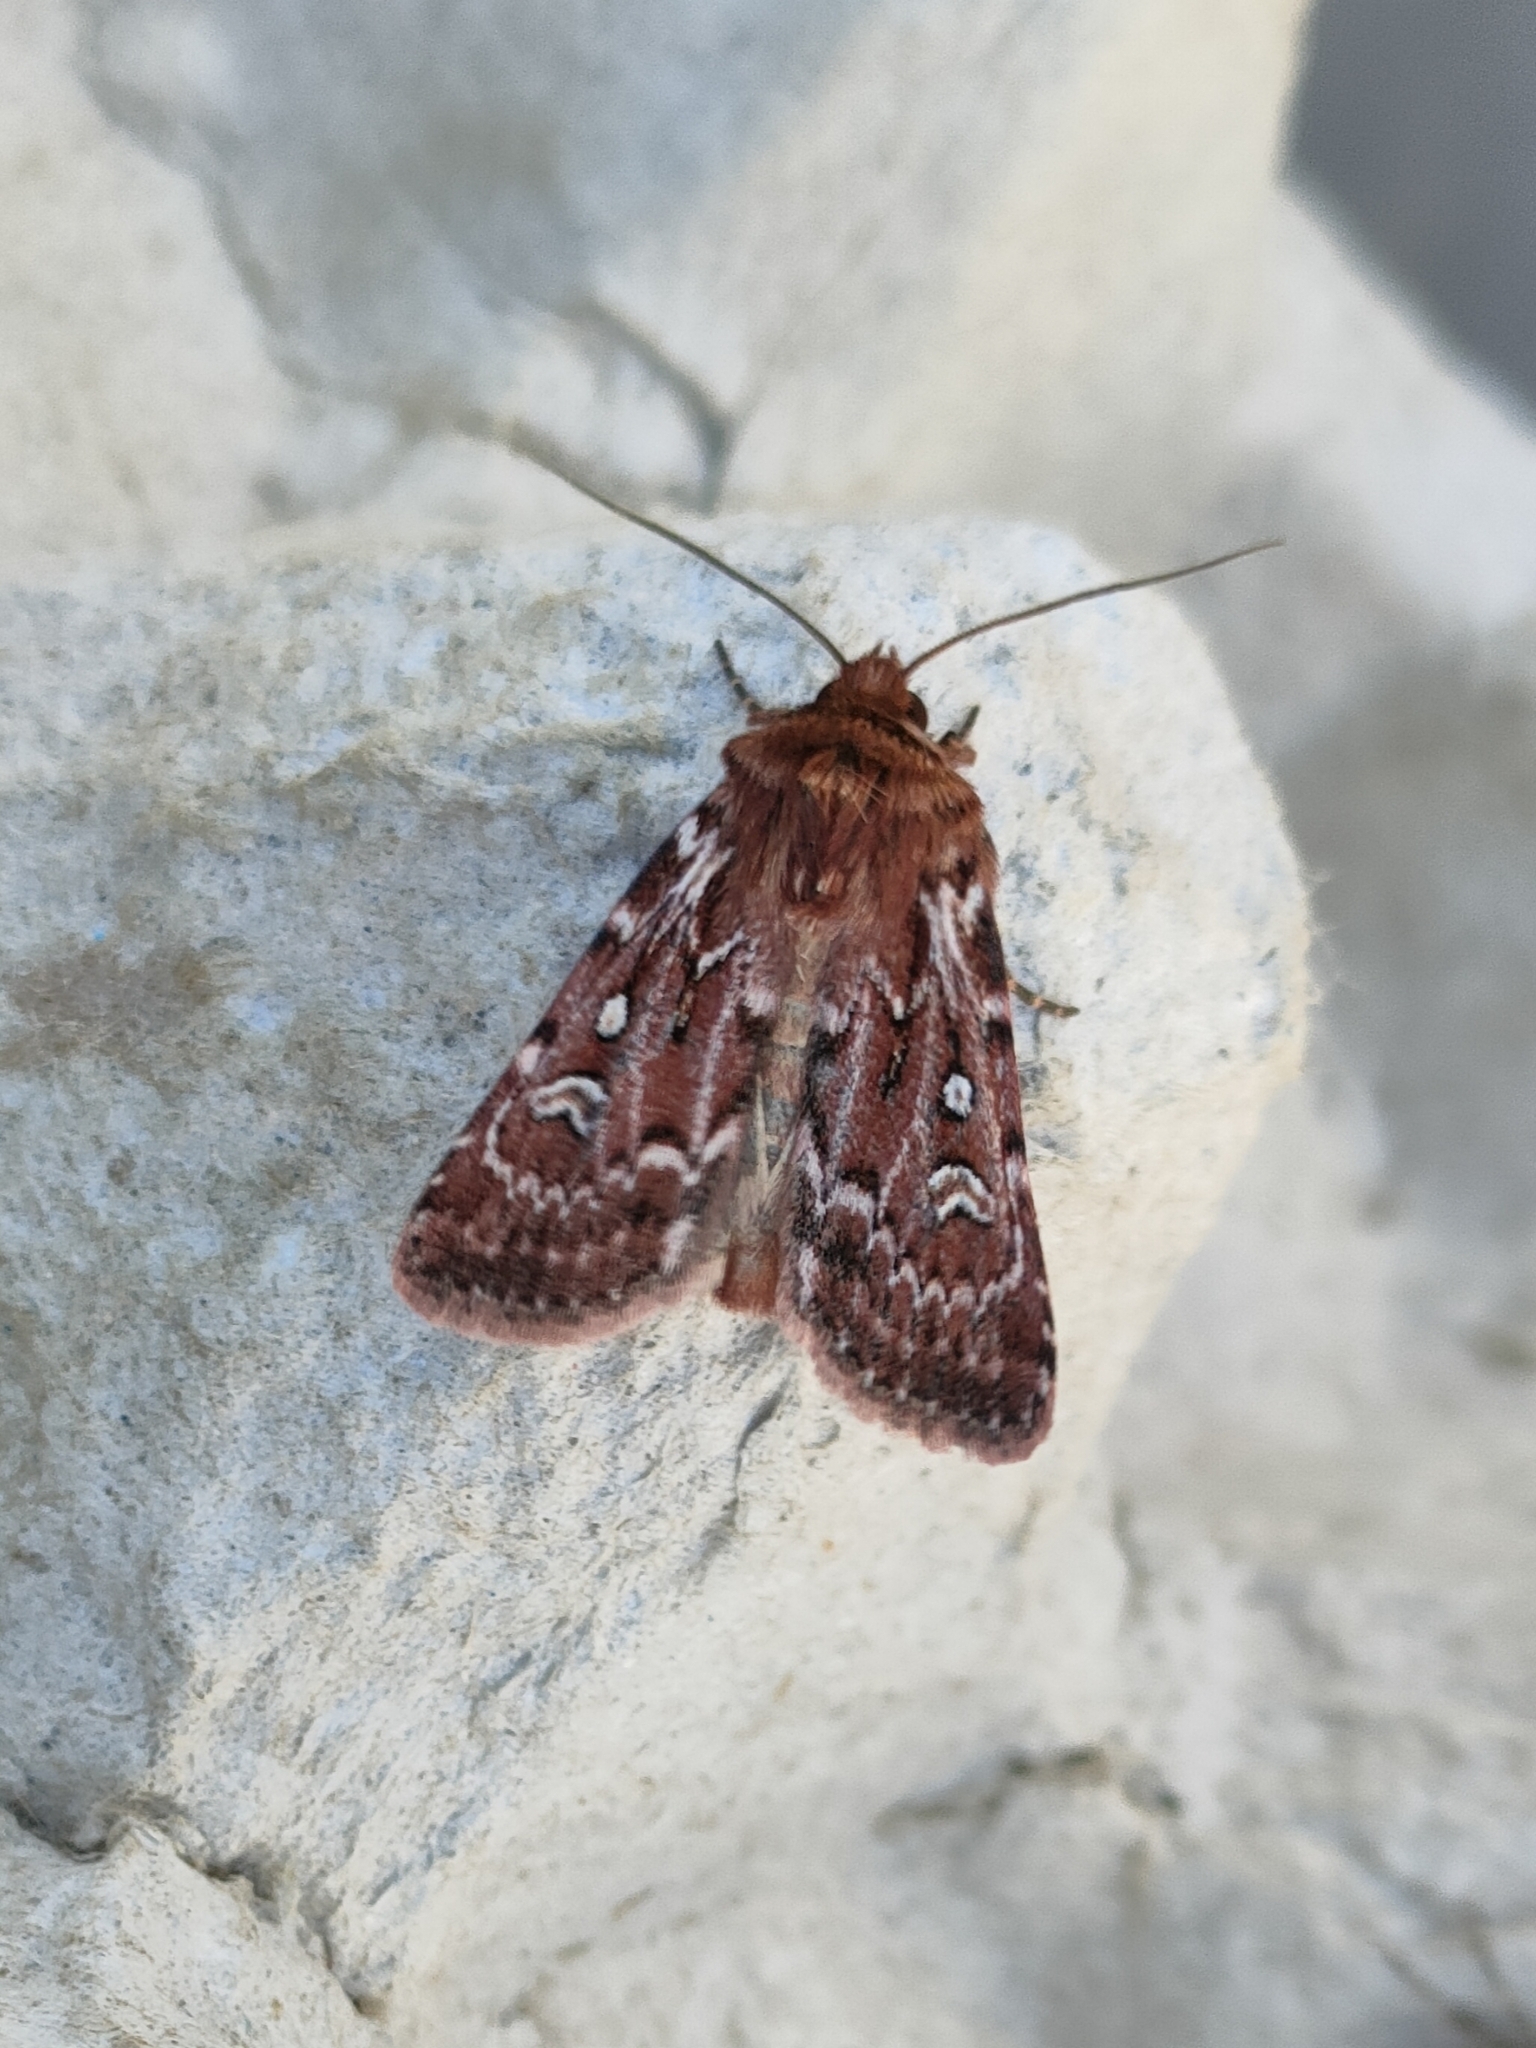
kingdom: Animalia
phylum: Arthropoda
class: Insecta
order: Lepidoptera
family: Noctuidae
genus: Lycophotia
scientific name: Lycophotia porphyrea
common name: True lover's knot
